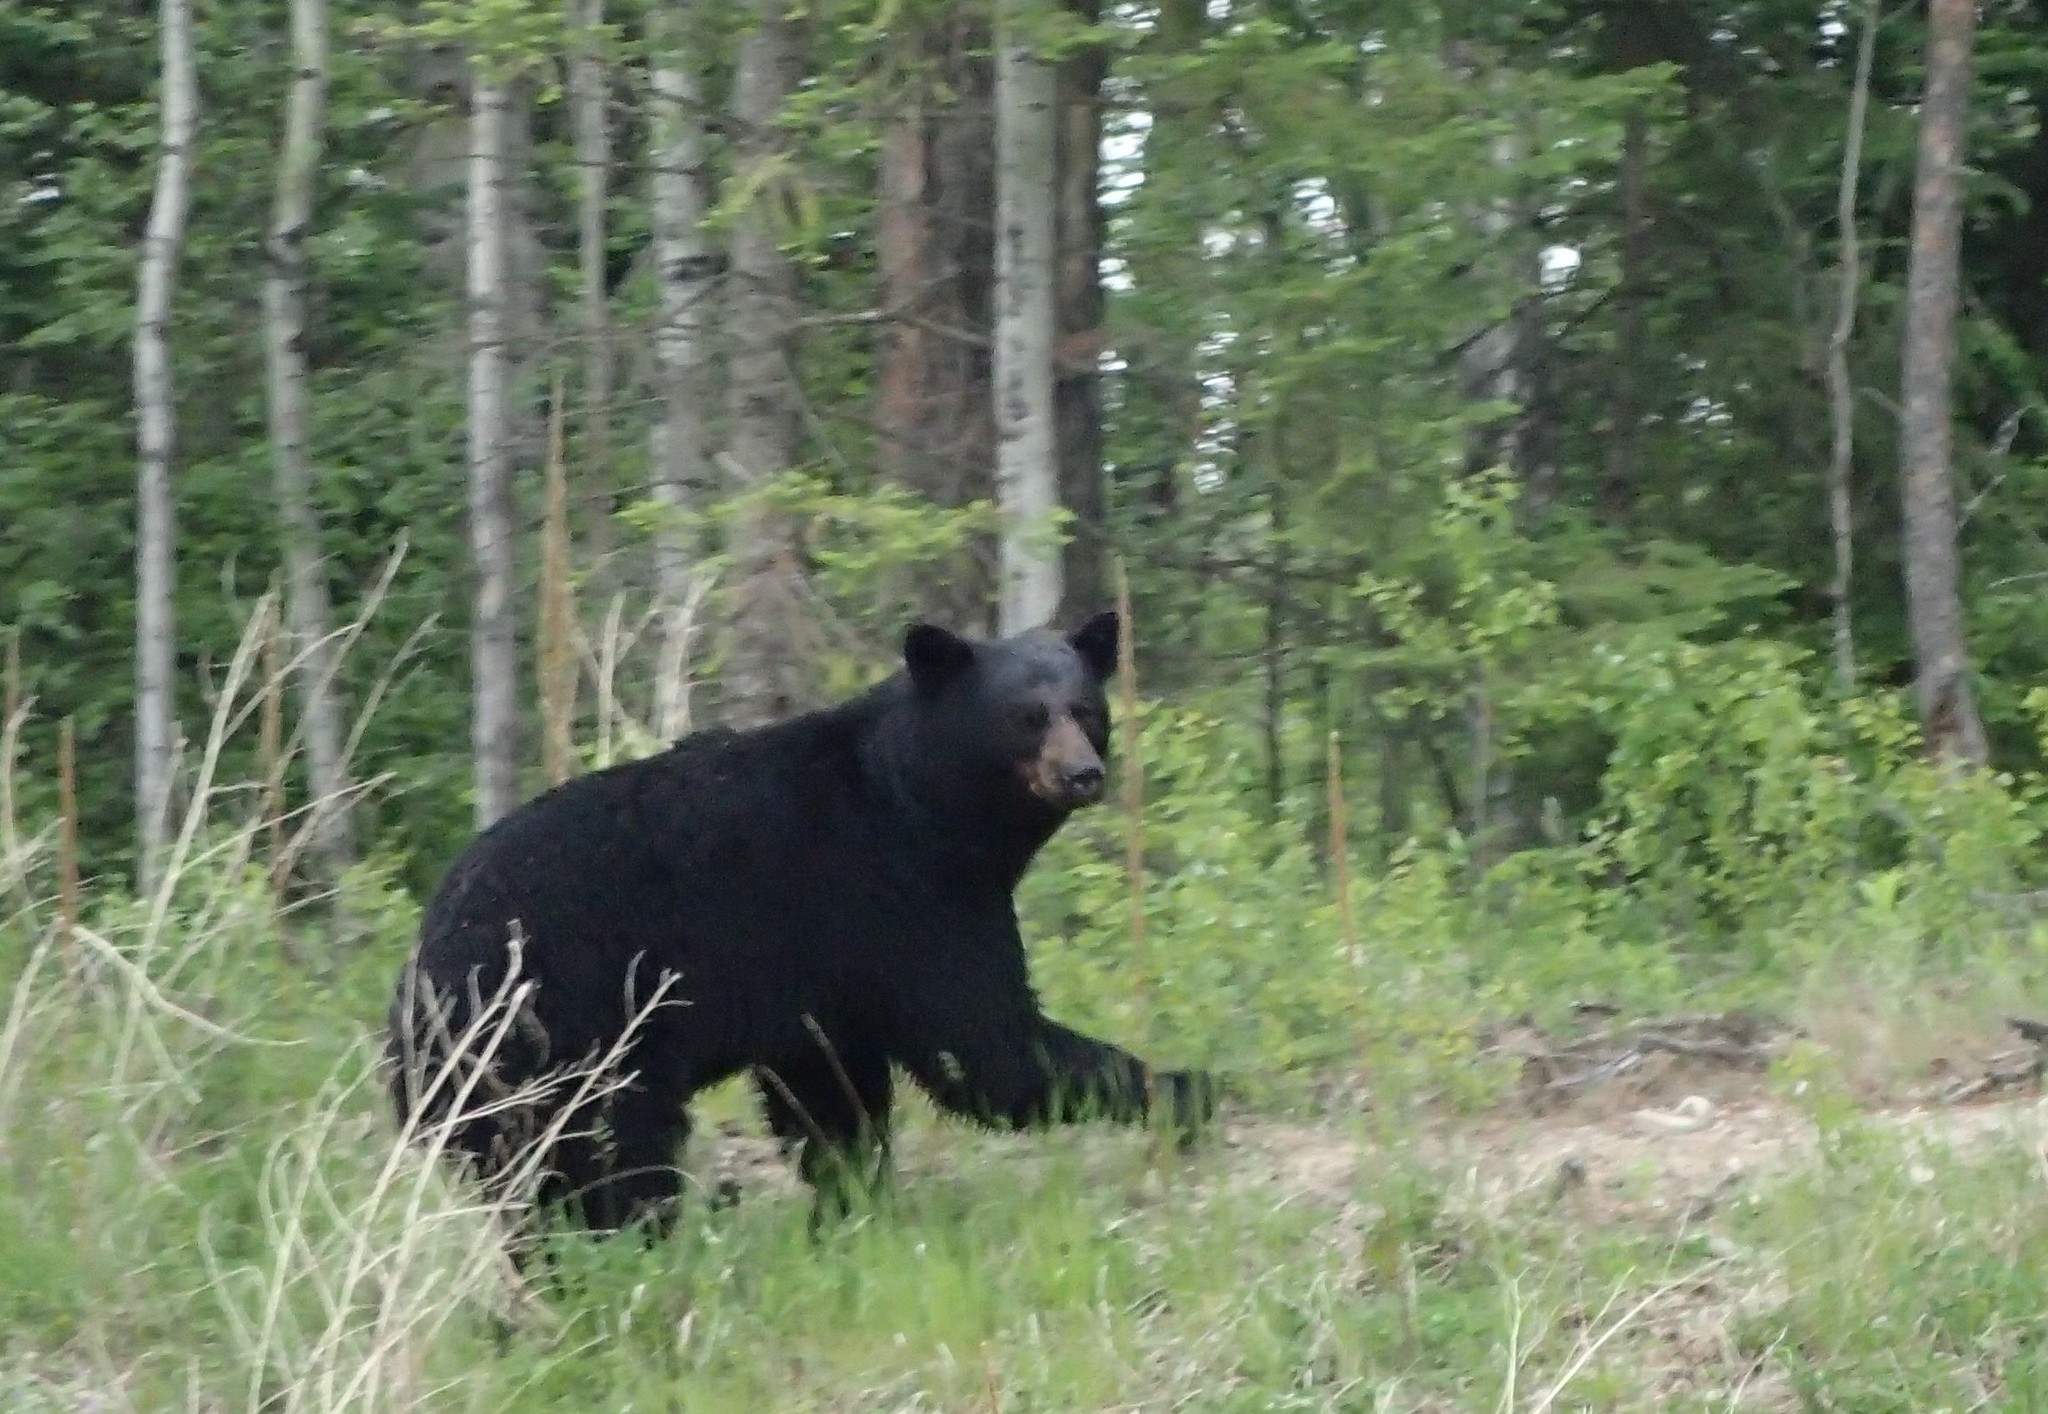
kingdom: Animalia
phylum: Chordata
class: Mammalia
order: Carnivora
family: Ursidae
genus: Ursus
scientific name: Ursus americanus
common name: American black bear
